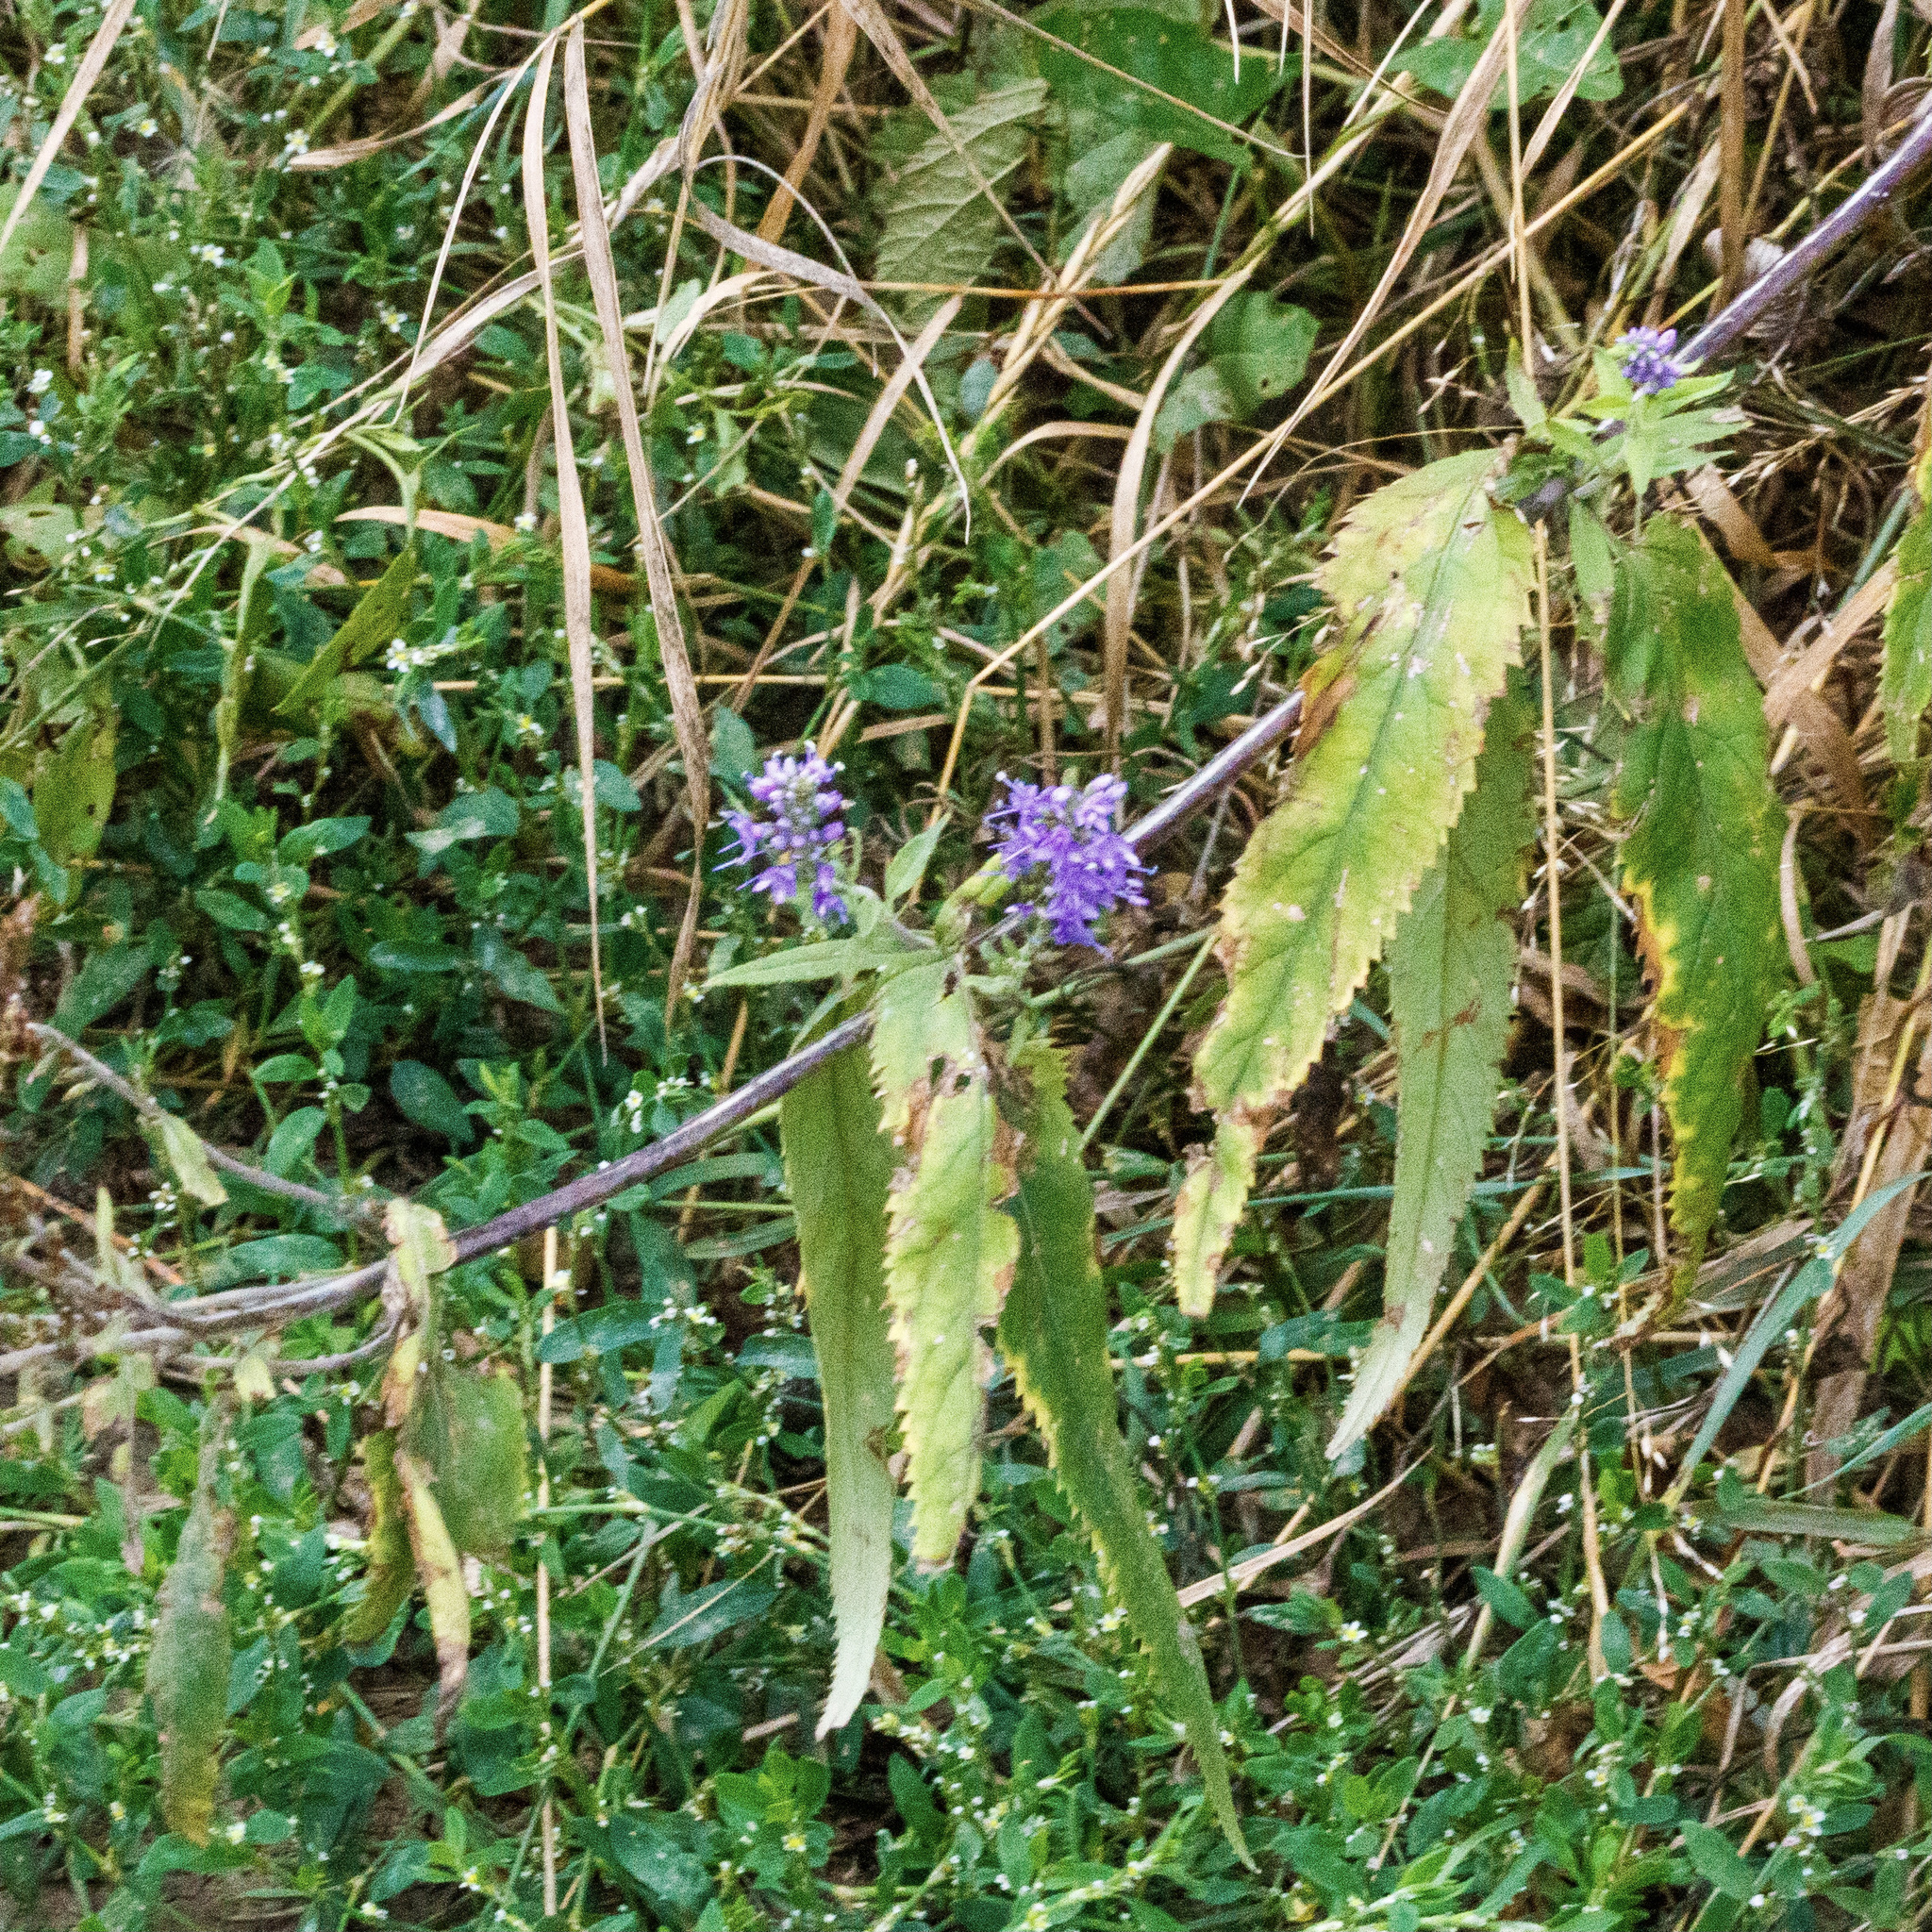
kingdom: Plantae
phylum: Tracheophyta
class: Magnoliopsida
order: Lamiales
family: Plantaginaceae
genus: Veronica
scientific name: Veronica longifolia
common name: Garden speedwell
